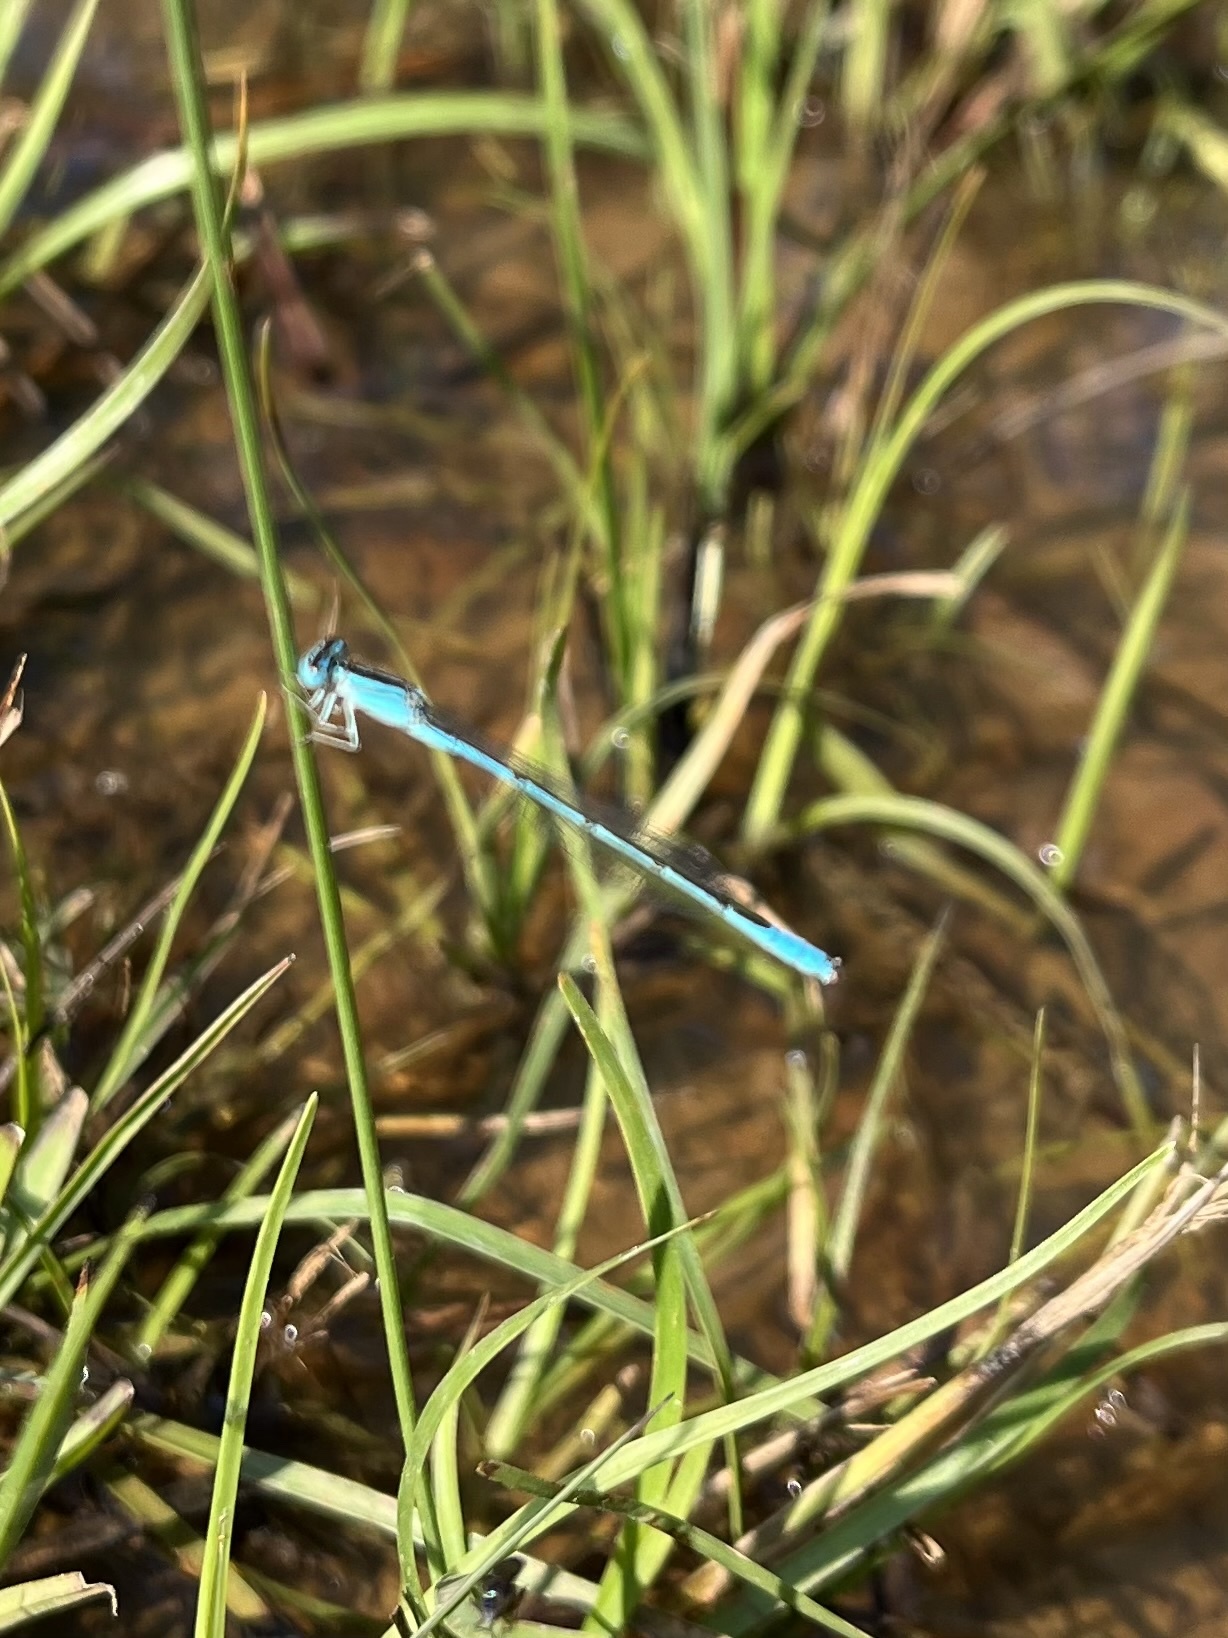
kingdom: Animalia
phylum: Arthropoda
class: Insecta
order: Odonata
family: Coenagrionidae
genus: Africallagma
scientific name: Africallagma glaucum
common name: Swamp bluet
